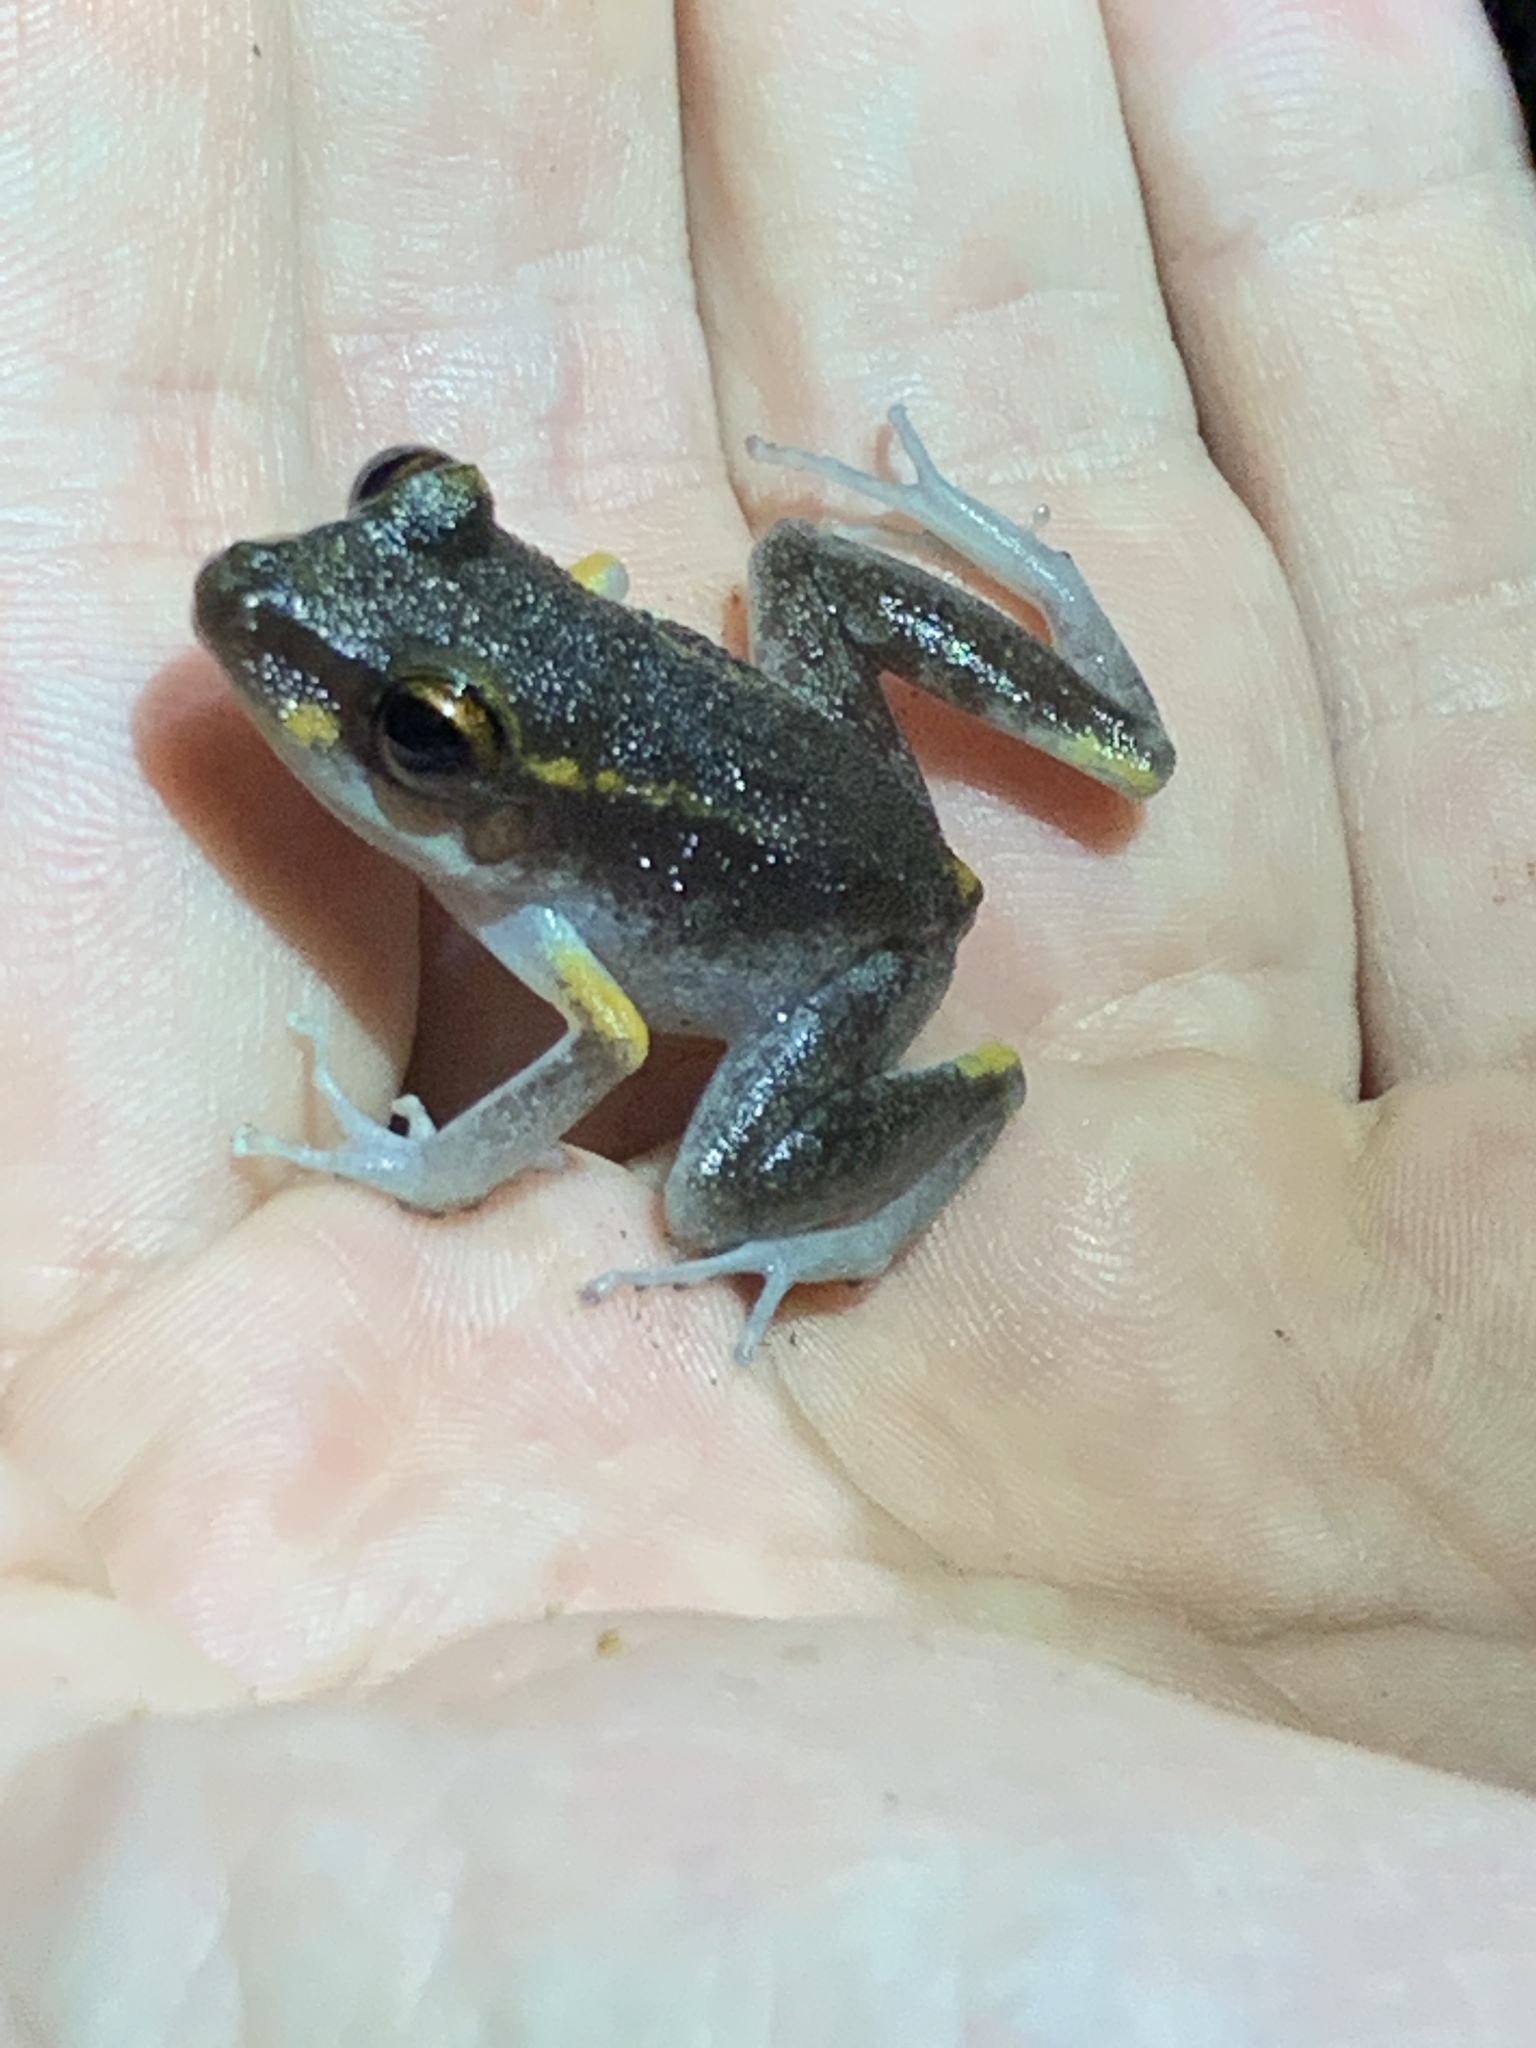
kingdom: Animalia
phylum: Chordata
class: Amphibia
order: Anura
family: Craugastoridae
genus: Pristimantis
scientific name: Pristimantis gaigei
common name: Fort randolph robber frog
